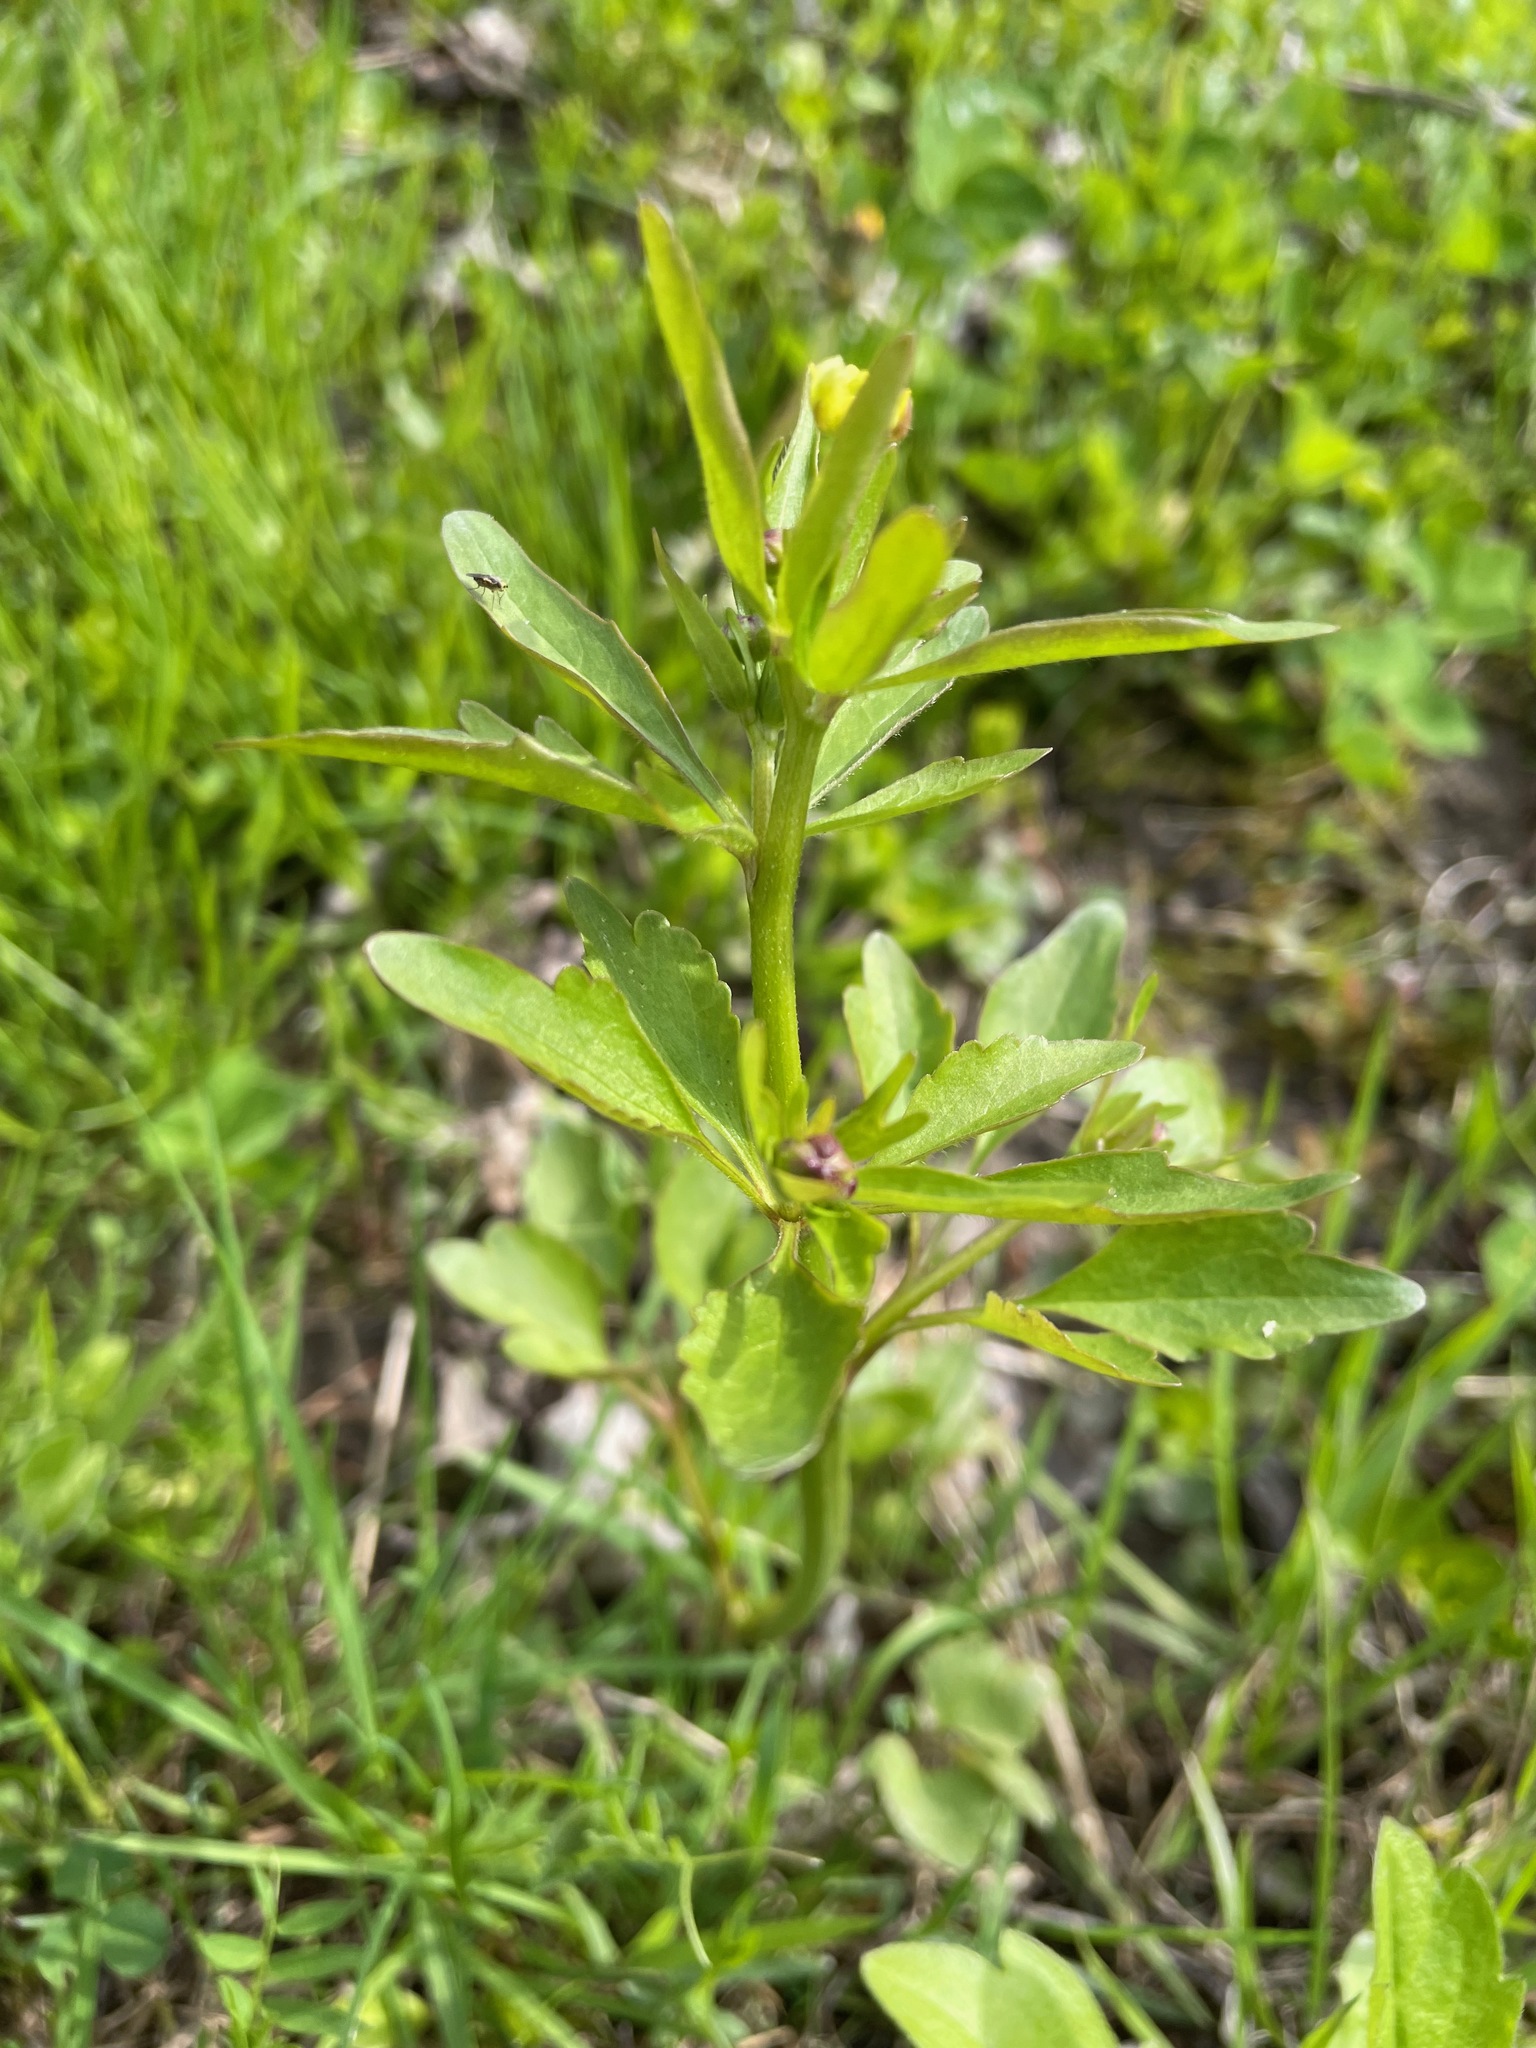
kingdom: Plantae
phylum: Tracheophyta
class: Magnoliopsida
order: Ranunculales
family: Ranunculaceae
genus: Ranunculus
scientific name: Ranunculus abortivus
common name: Early wood buttercup
